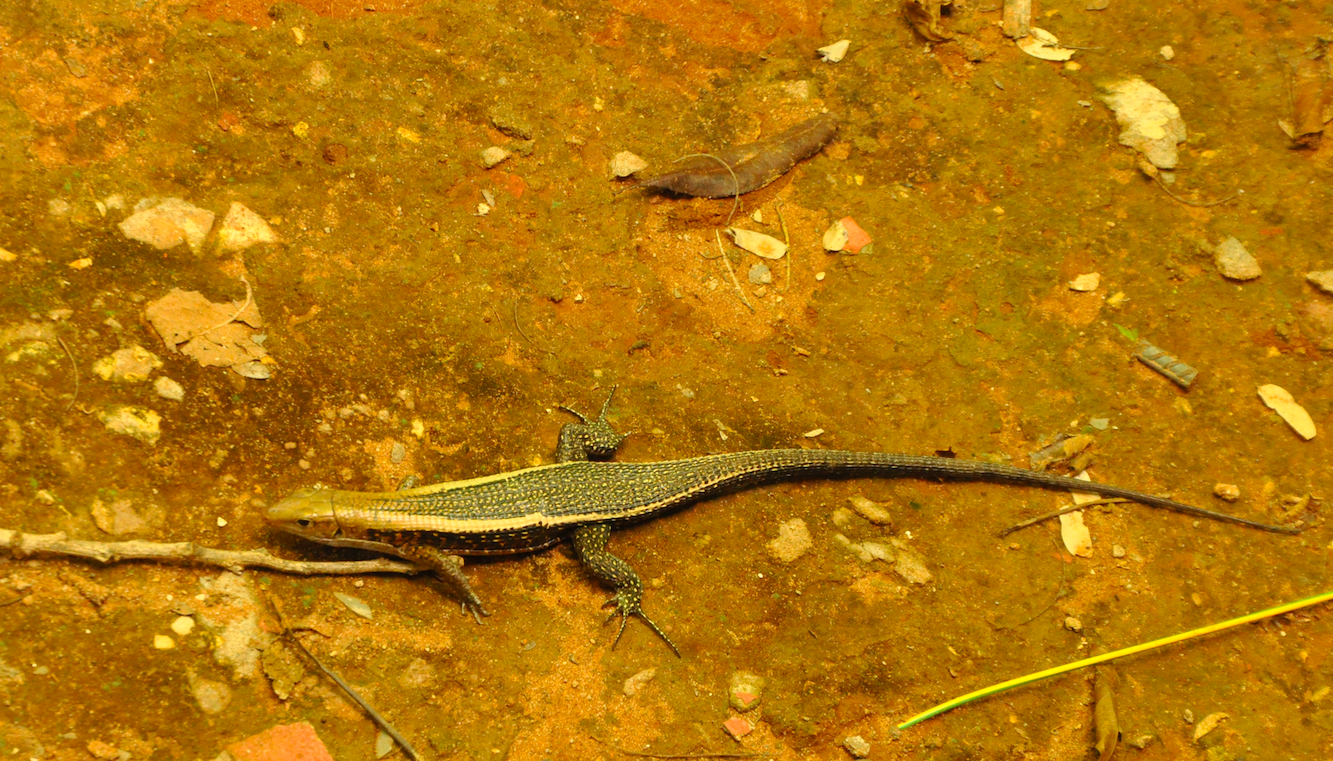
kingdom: Animalia
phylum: Chordata
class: Squamata
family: Gerrhosauridae
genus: Zonosaurus
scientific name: Zonosaurus laticaudatus
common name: Western girdled lizard
